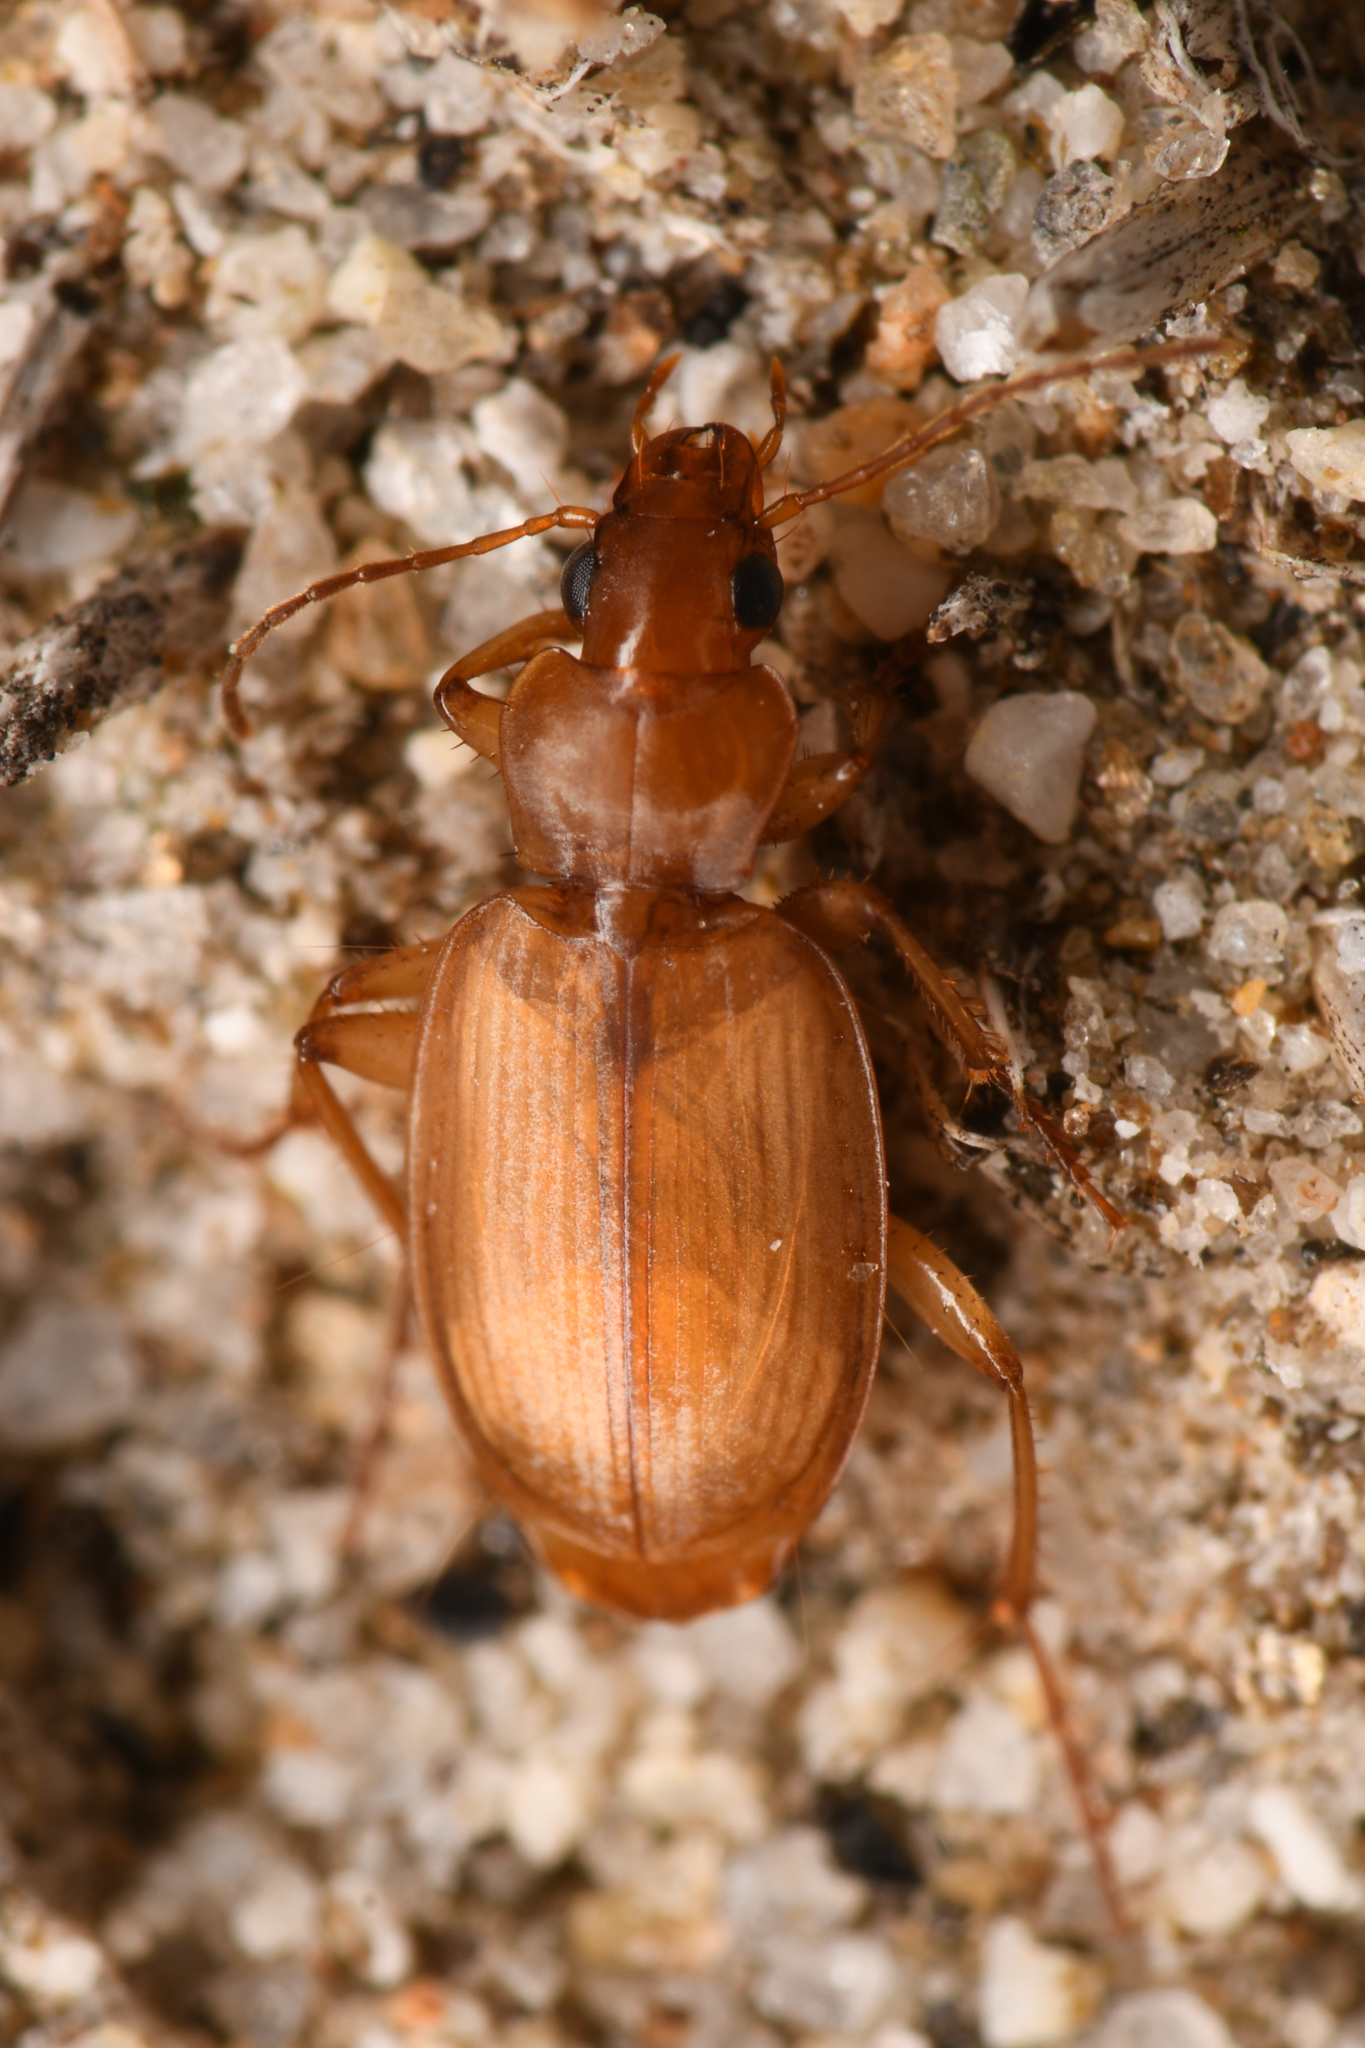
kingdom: Animalia
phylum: Arthropoda
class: Insecta
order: Coleoptera
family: Carabidae
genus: Tetragonoderus
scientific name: Tetragonoderus pallidus
